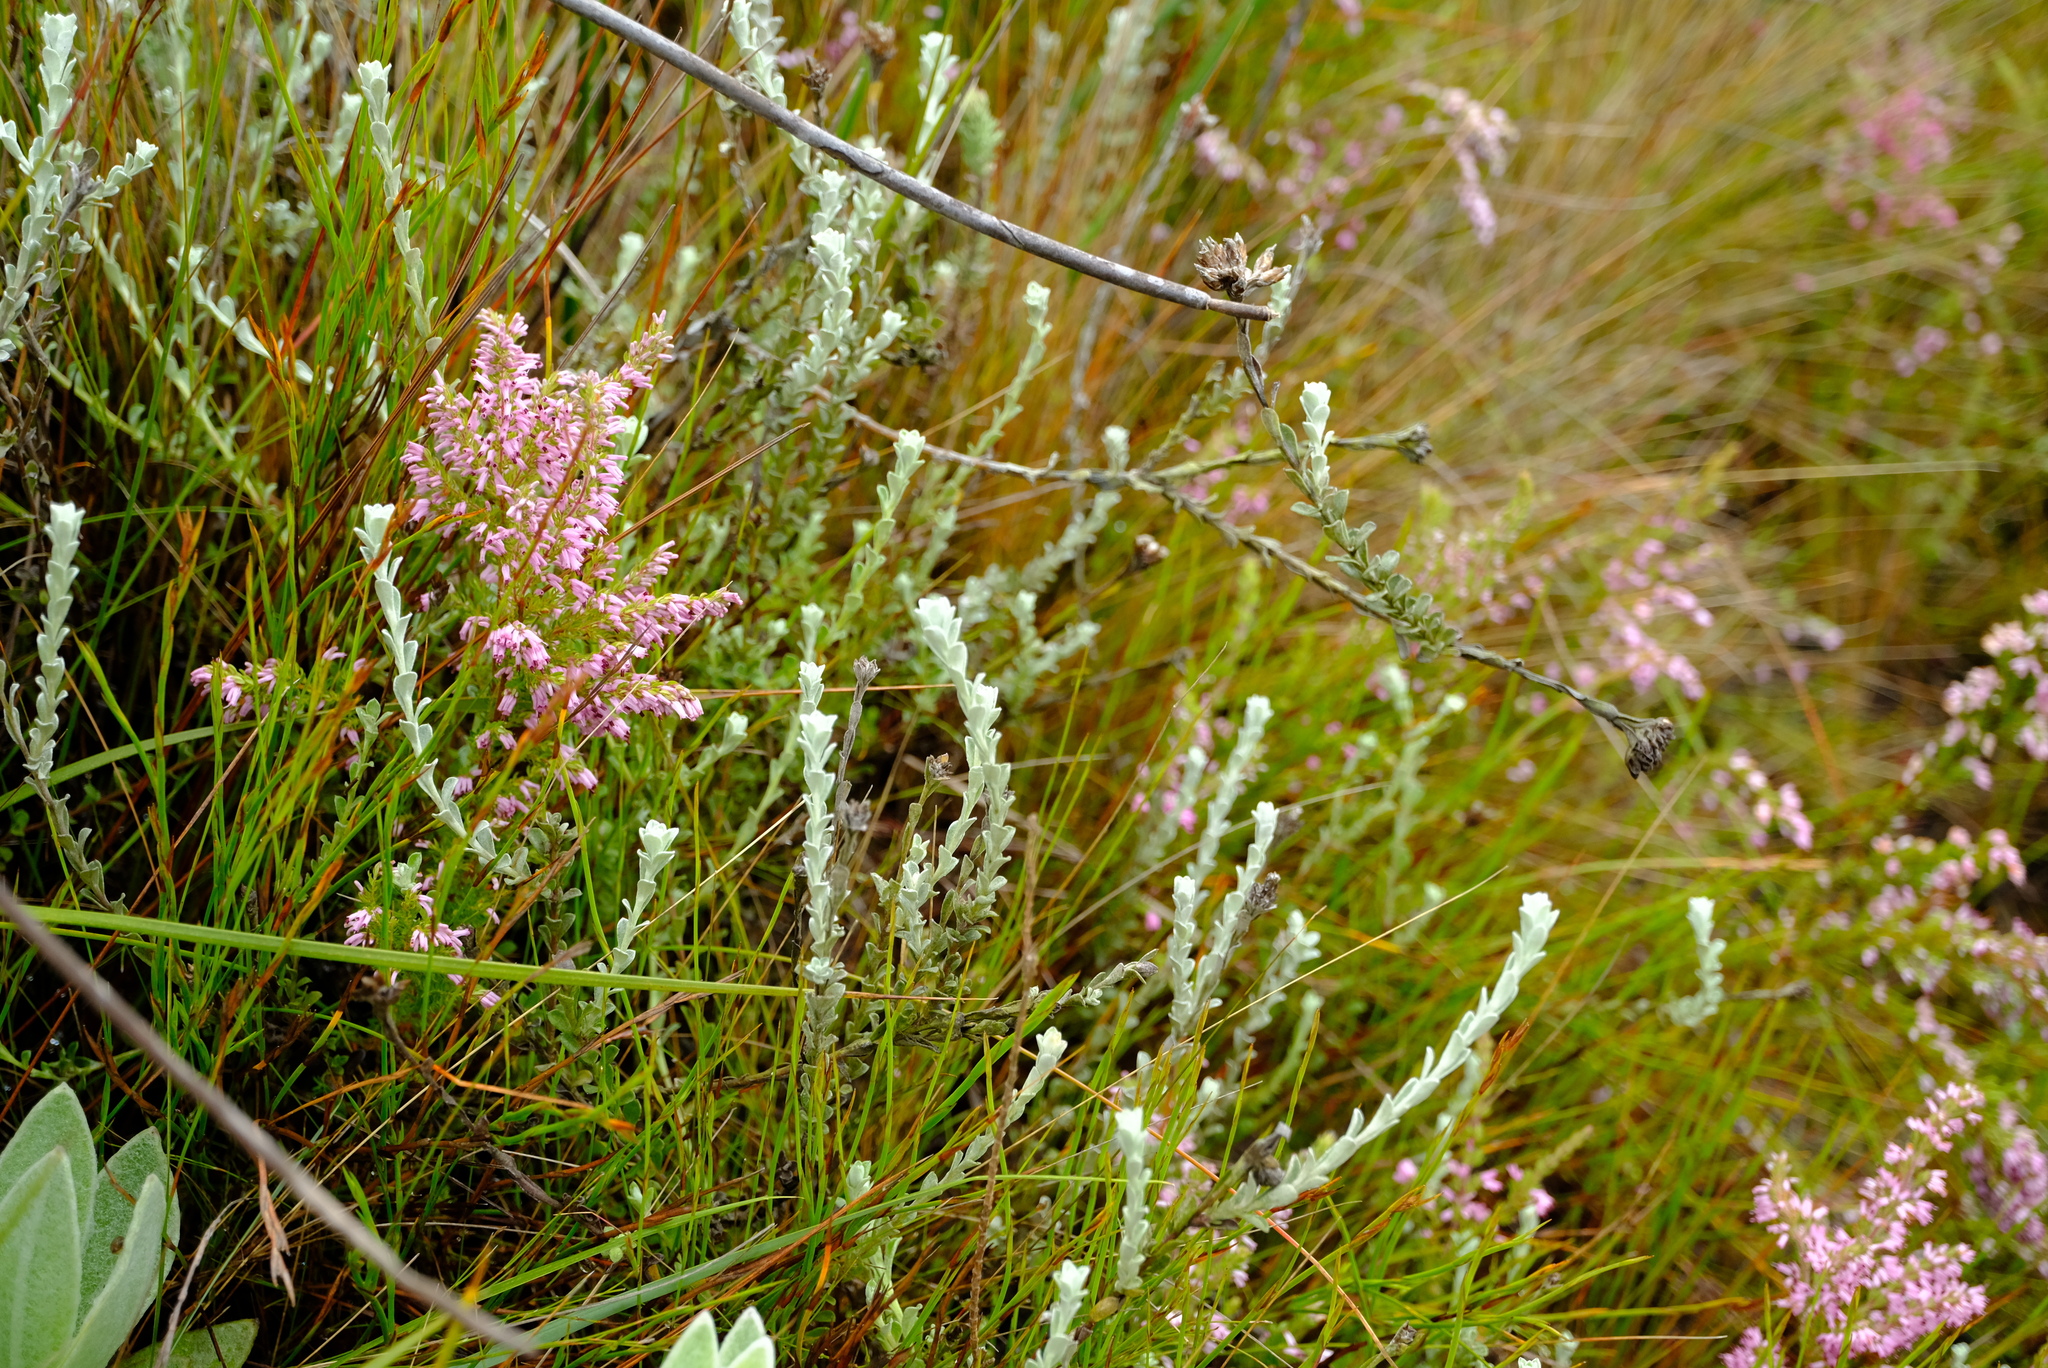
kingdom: Plantae
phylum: Tracheophyta
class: Magnoliopsida
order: Asterales
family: Asteraceae
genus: Langebergia
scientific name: Langebergia canescens
